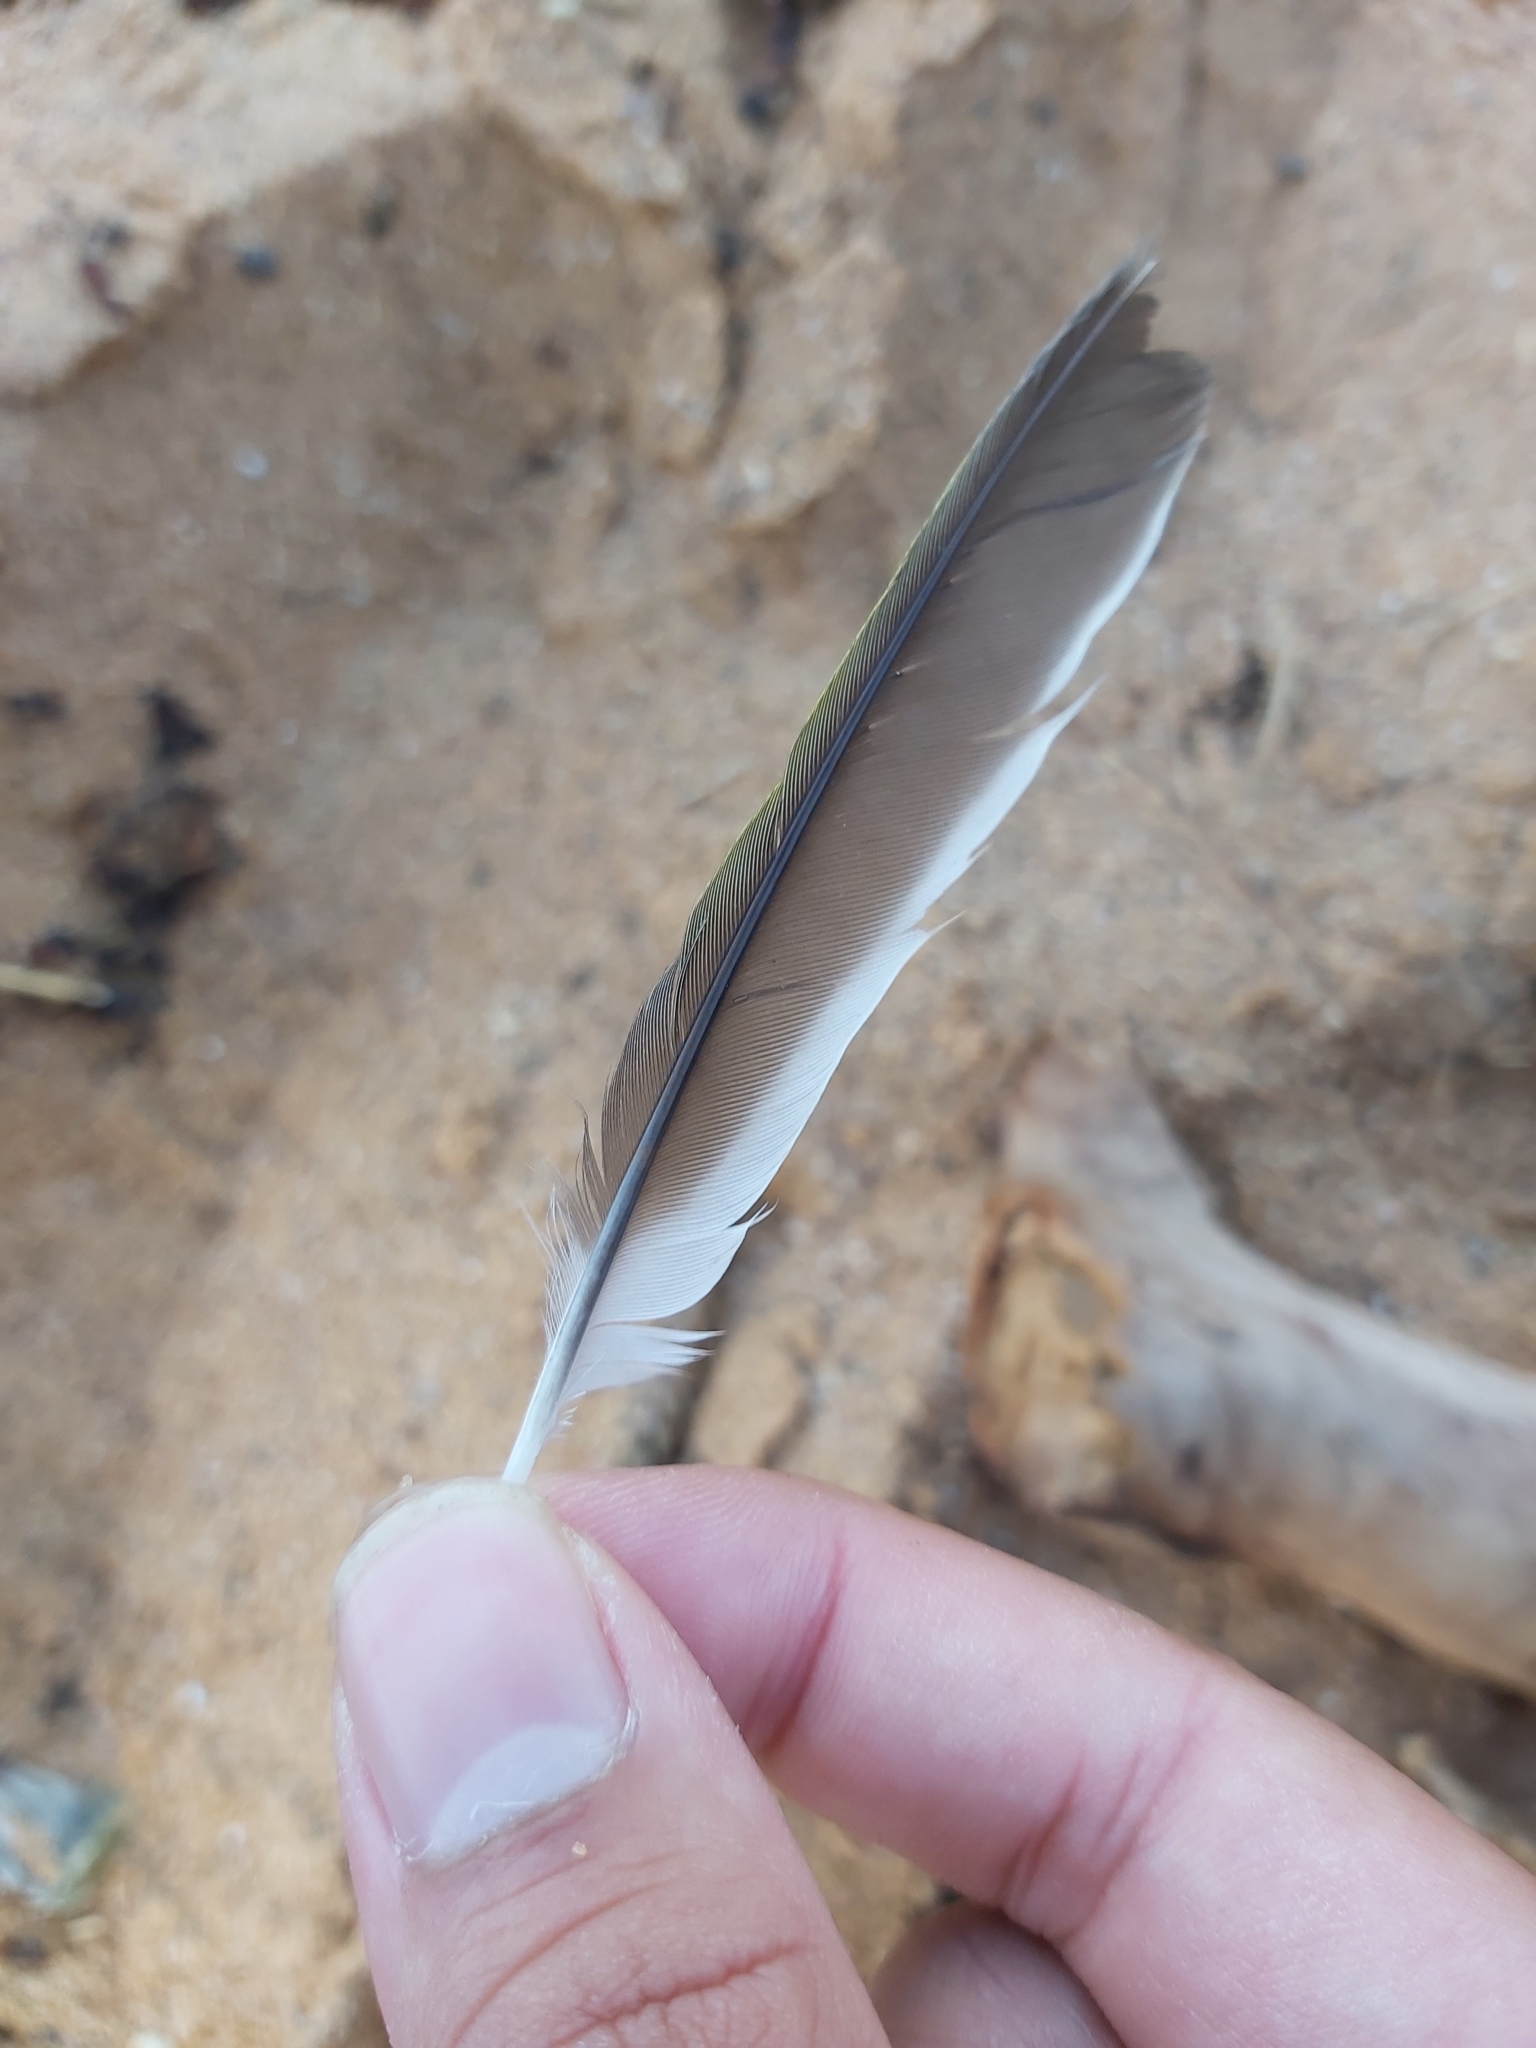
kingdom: Animalia
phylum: Chordata
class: Aves
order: Passeriformes
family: Meliphagidae
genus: Manorina
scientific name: Manorina melanocephala
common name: Noisy miner
